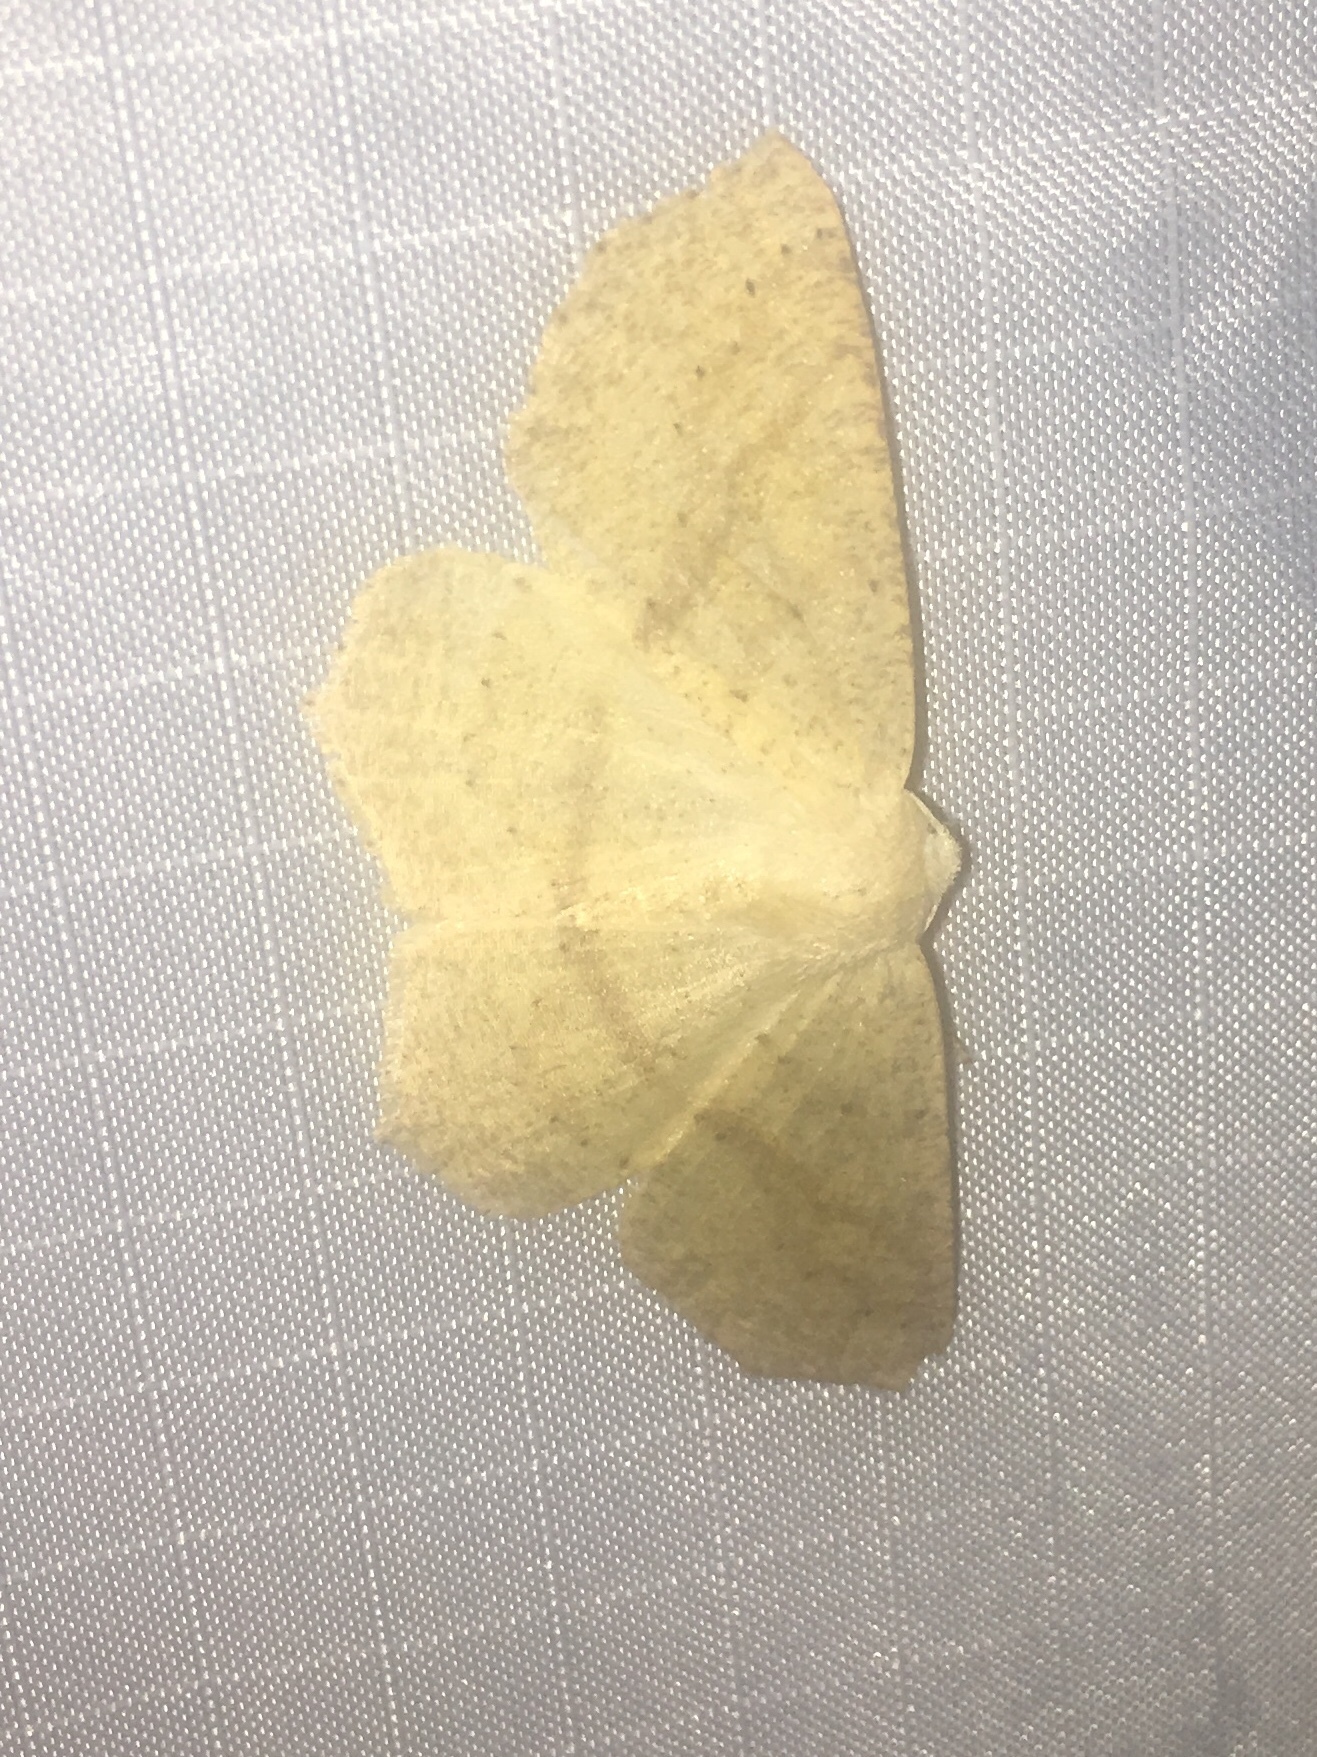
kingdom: Animalia
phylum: Arthropoda
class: Insecta
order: Lepidoptera
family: Geometridae
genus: Sabulodes
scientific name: Sabulodes aegrotata
